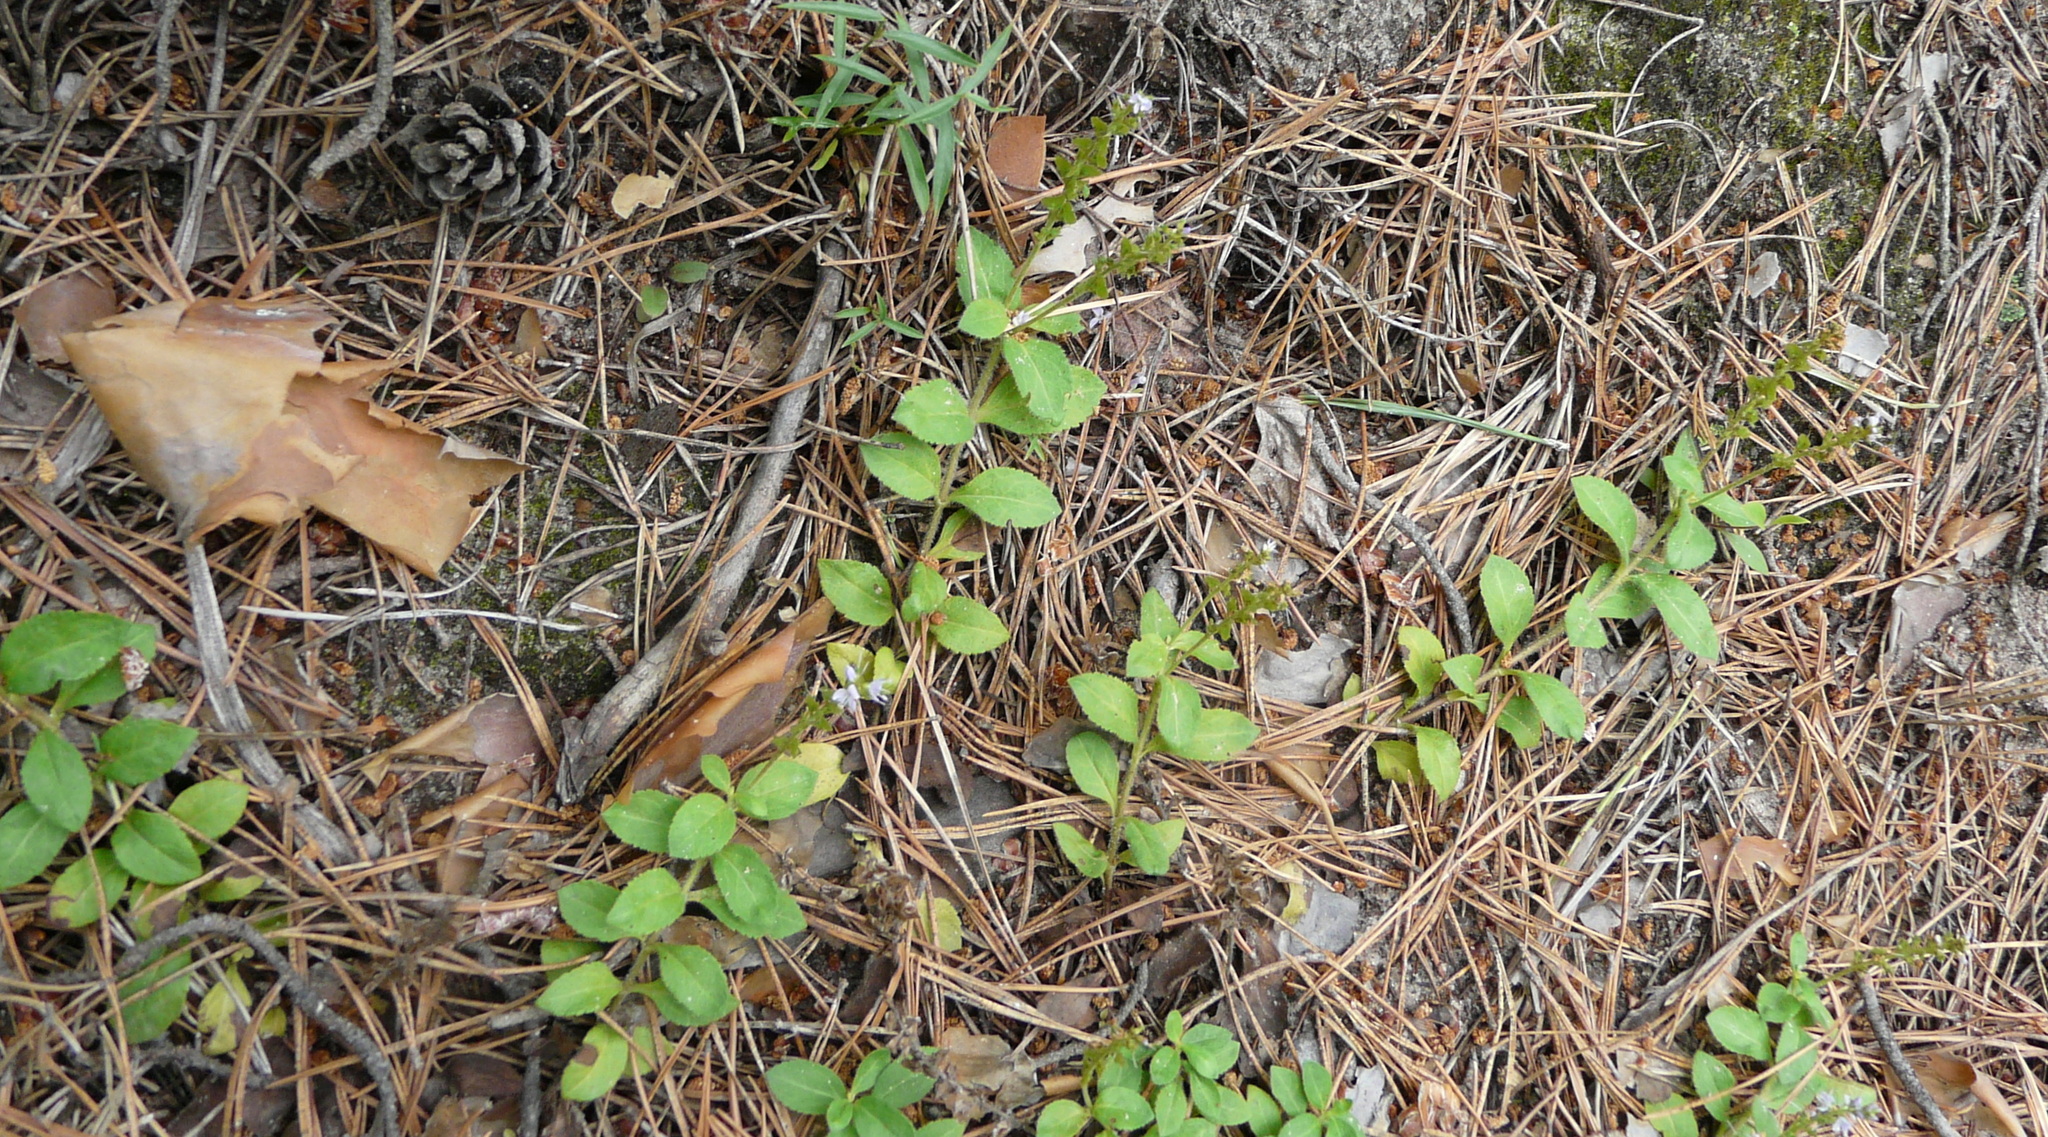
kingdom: Plantae
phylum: Tracheophyta
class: Magnoliopsida
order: Lamiales
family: Plantaginaceae
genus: Veronica
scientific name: Veronica officinalis
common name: Common speedwell
